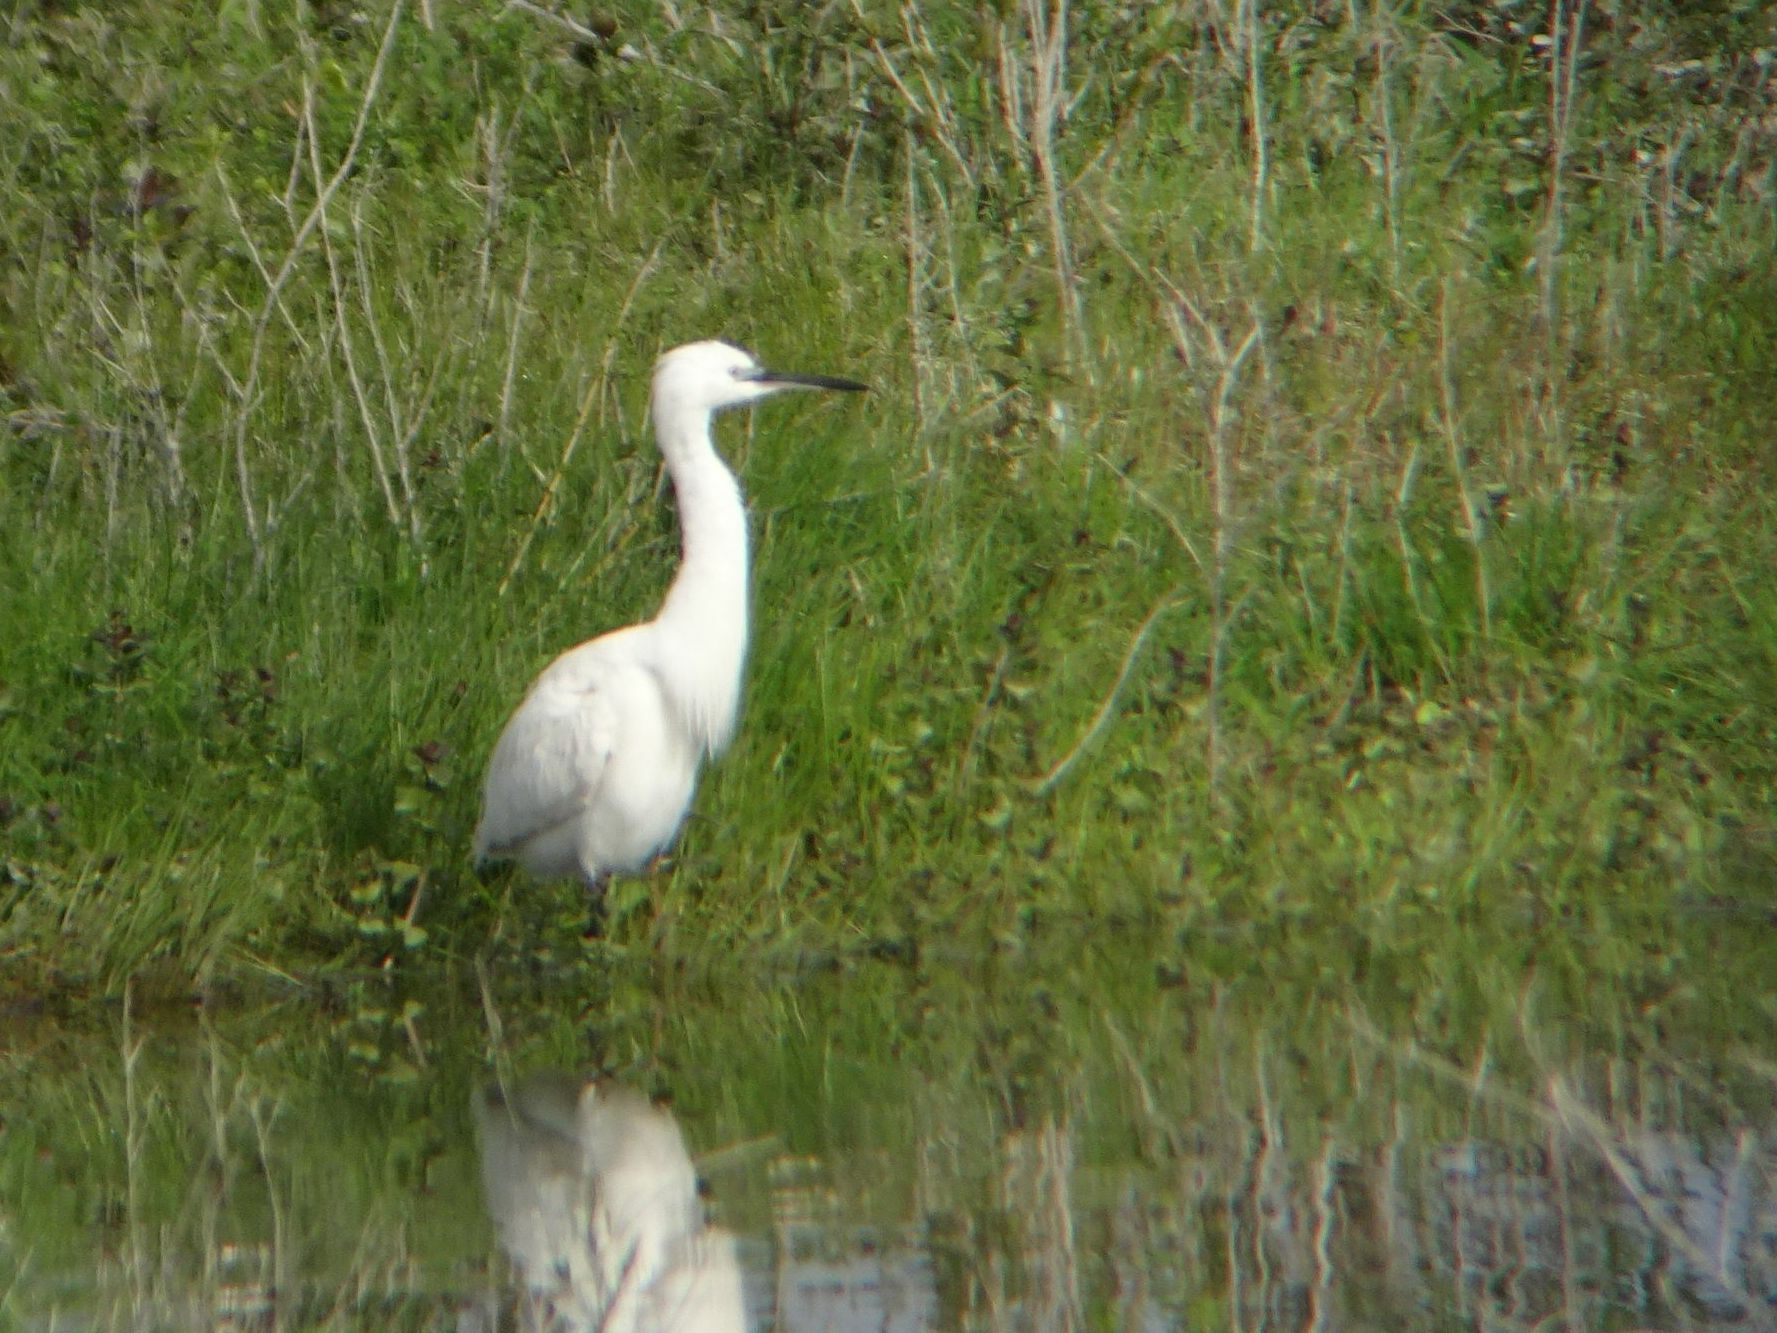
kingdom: Animalia
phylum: Chordata
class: Aves
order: Pelecaniformes
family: Ardeidae
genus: Egretta
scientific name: Egretta garzetta
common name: Little egret
